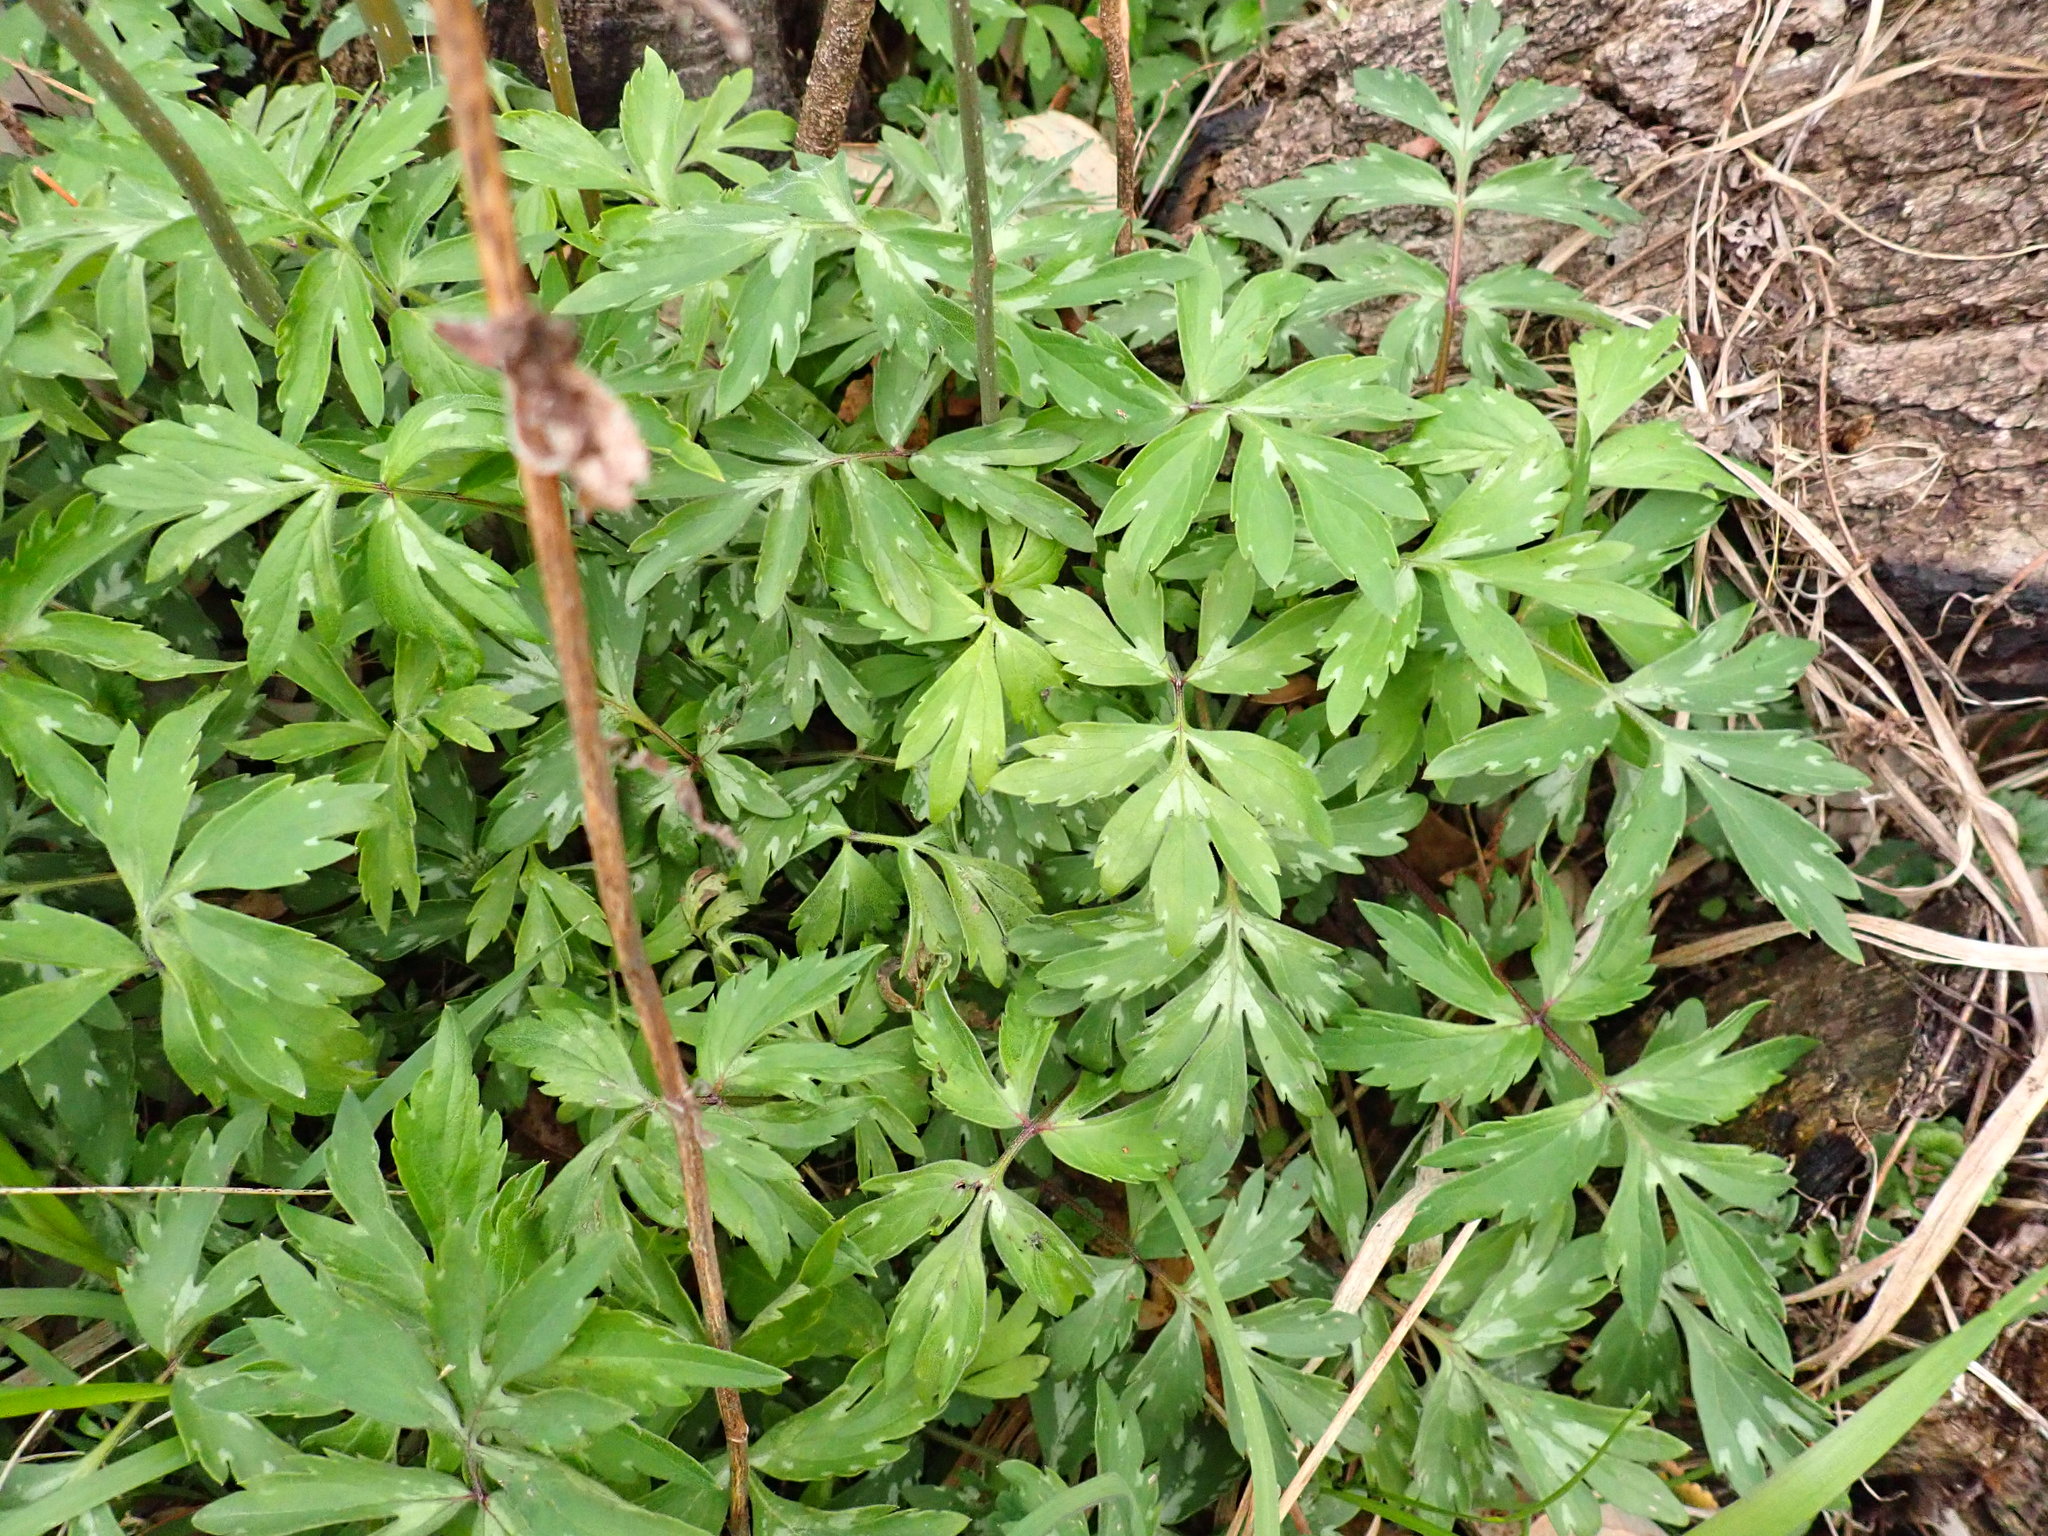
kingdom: Plantae
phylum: Tracheophyta
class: Magnoliopsida
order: Boraginales
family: Hydrophyllaceae
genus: Hydrophyllum
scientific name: Hydrophyllum virginianum
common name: Virginia waterleaf
